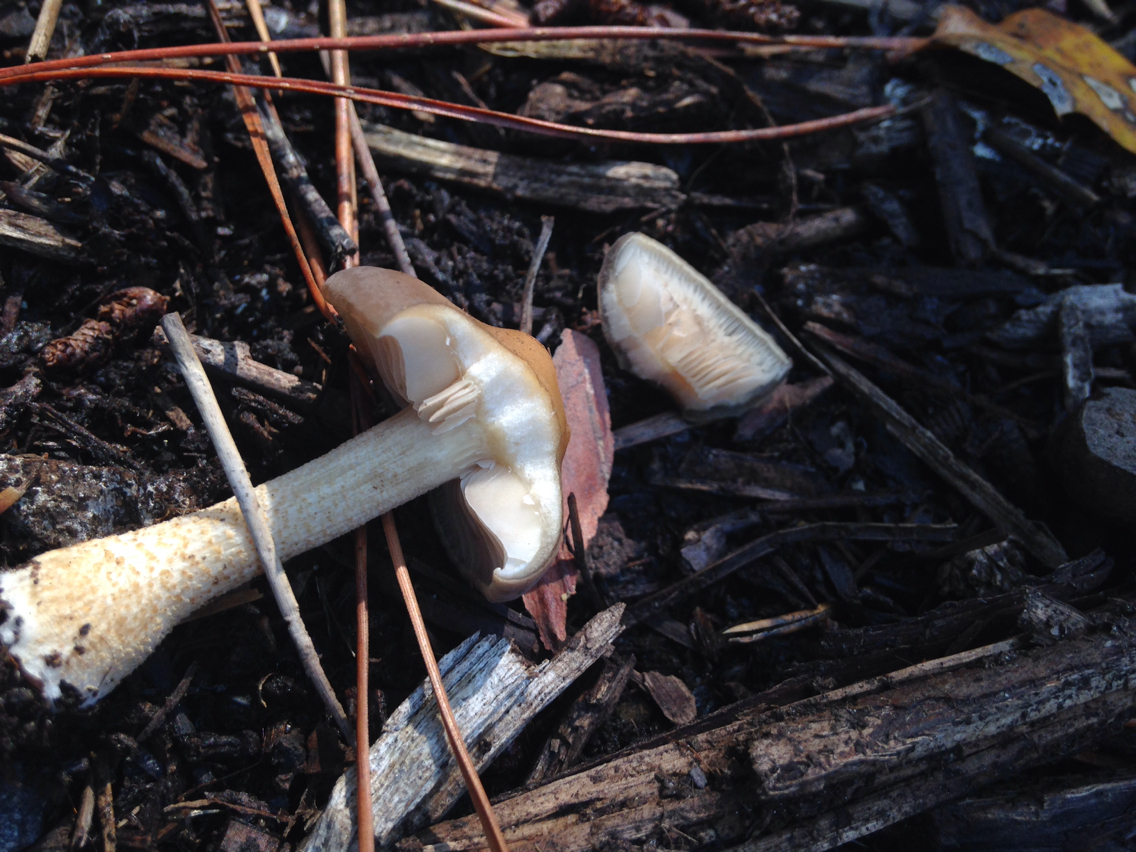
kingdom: Fungi
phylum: Basidiomycota
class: Agaricomycetes
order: Agaricales
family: Strophariaceae
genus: Agrocybe
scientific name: Agrocybe putaminum
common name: Mulch fieldcap
